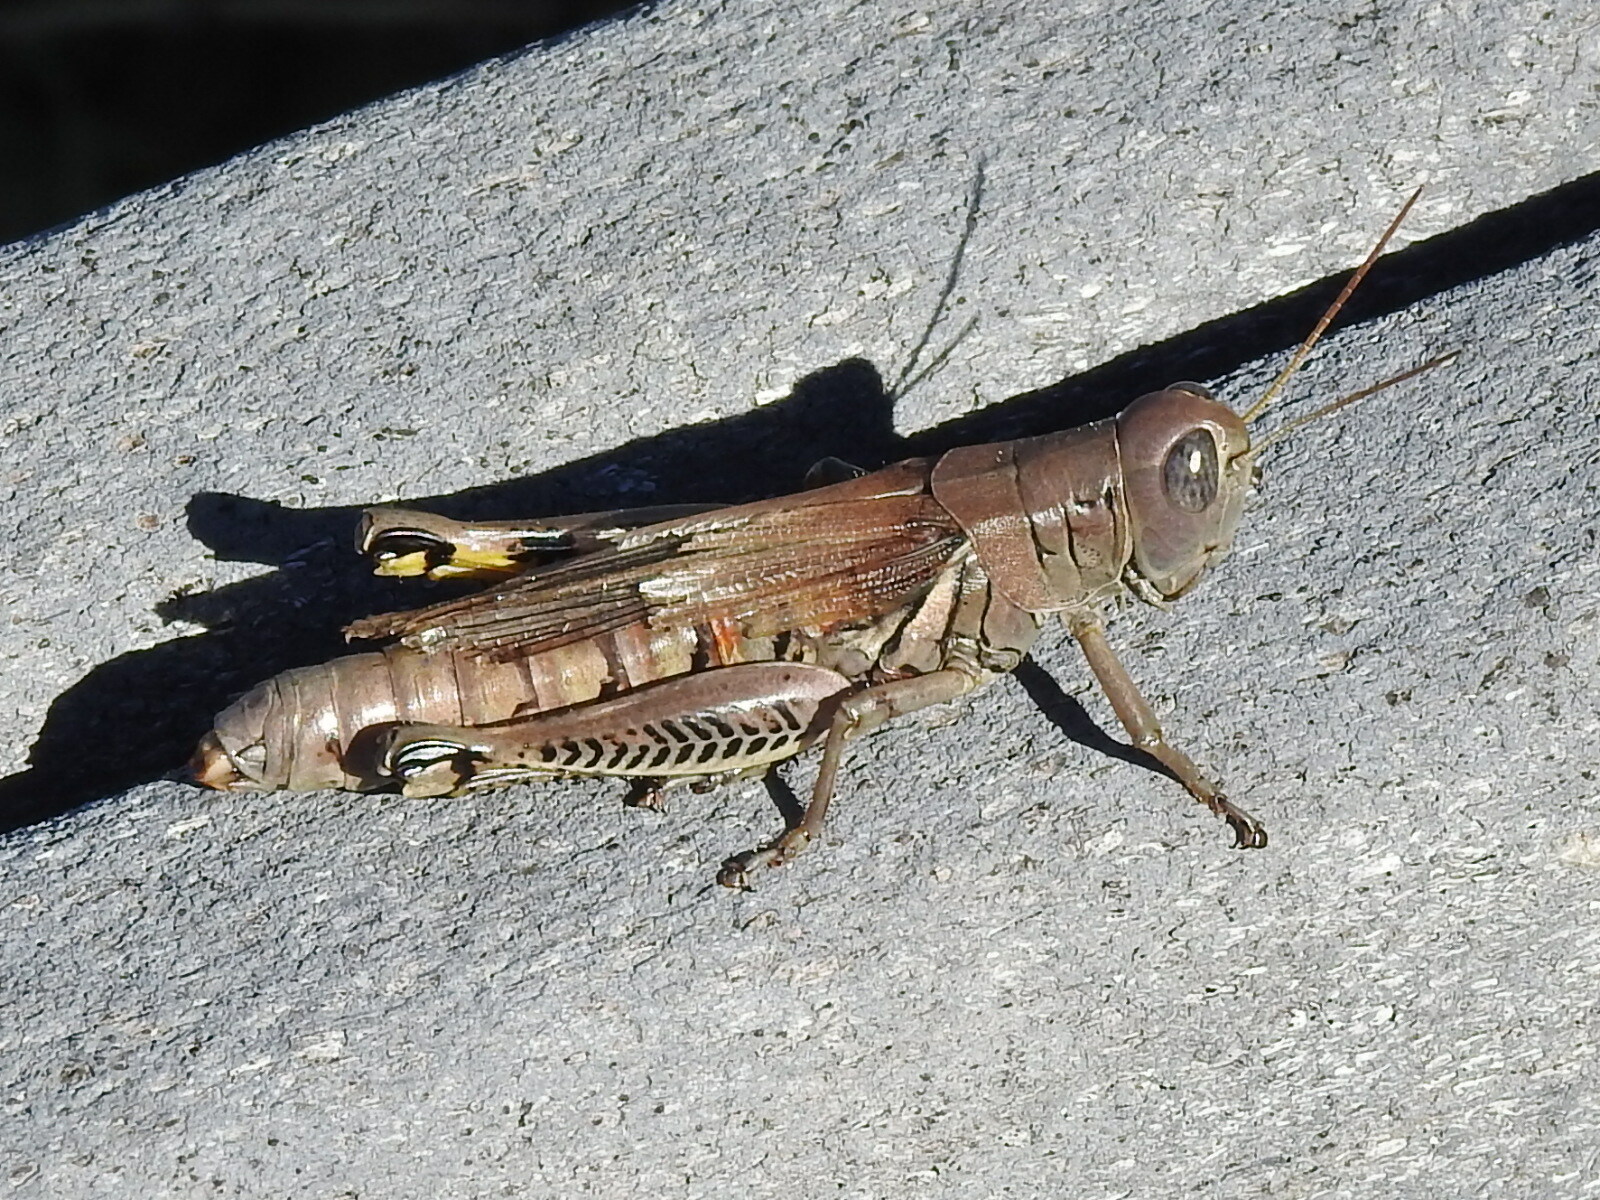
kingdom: Animalia
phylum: Arthropoda
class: Insecta
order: Orthoptera
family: Acrididae
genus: Melanoplus
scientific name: Melanoplus differentialis
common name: Differential grasshopper
